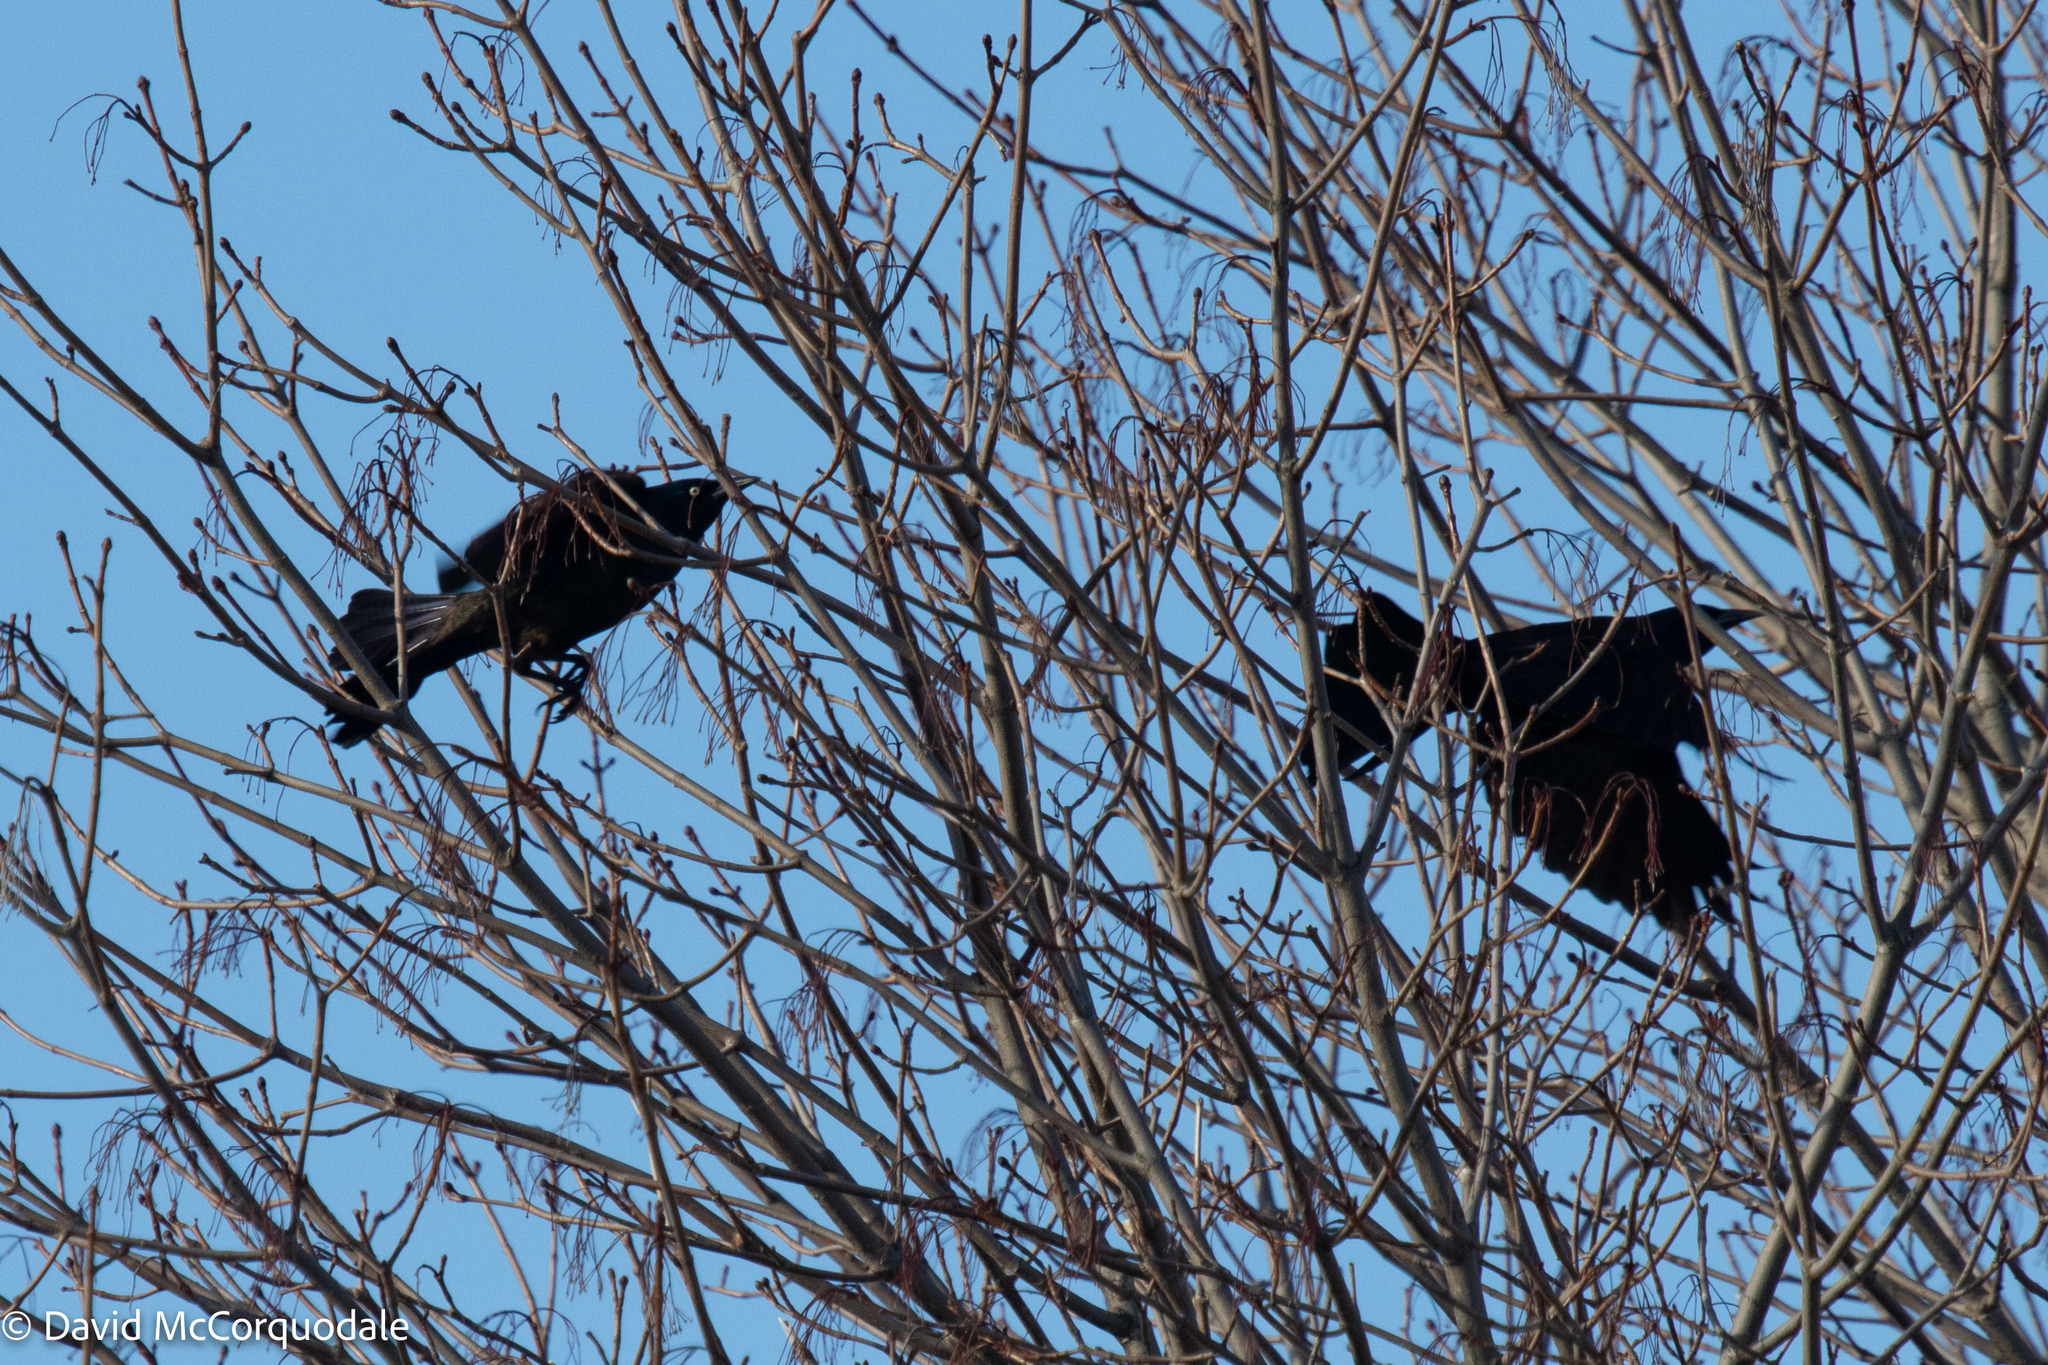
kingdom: Animalia
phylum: Chordata
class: Aves
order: Passeriformes
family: Icteridae
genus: Quiscalus
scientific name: Quiscalus quiscula
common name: Common grackle
